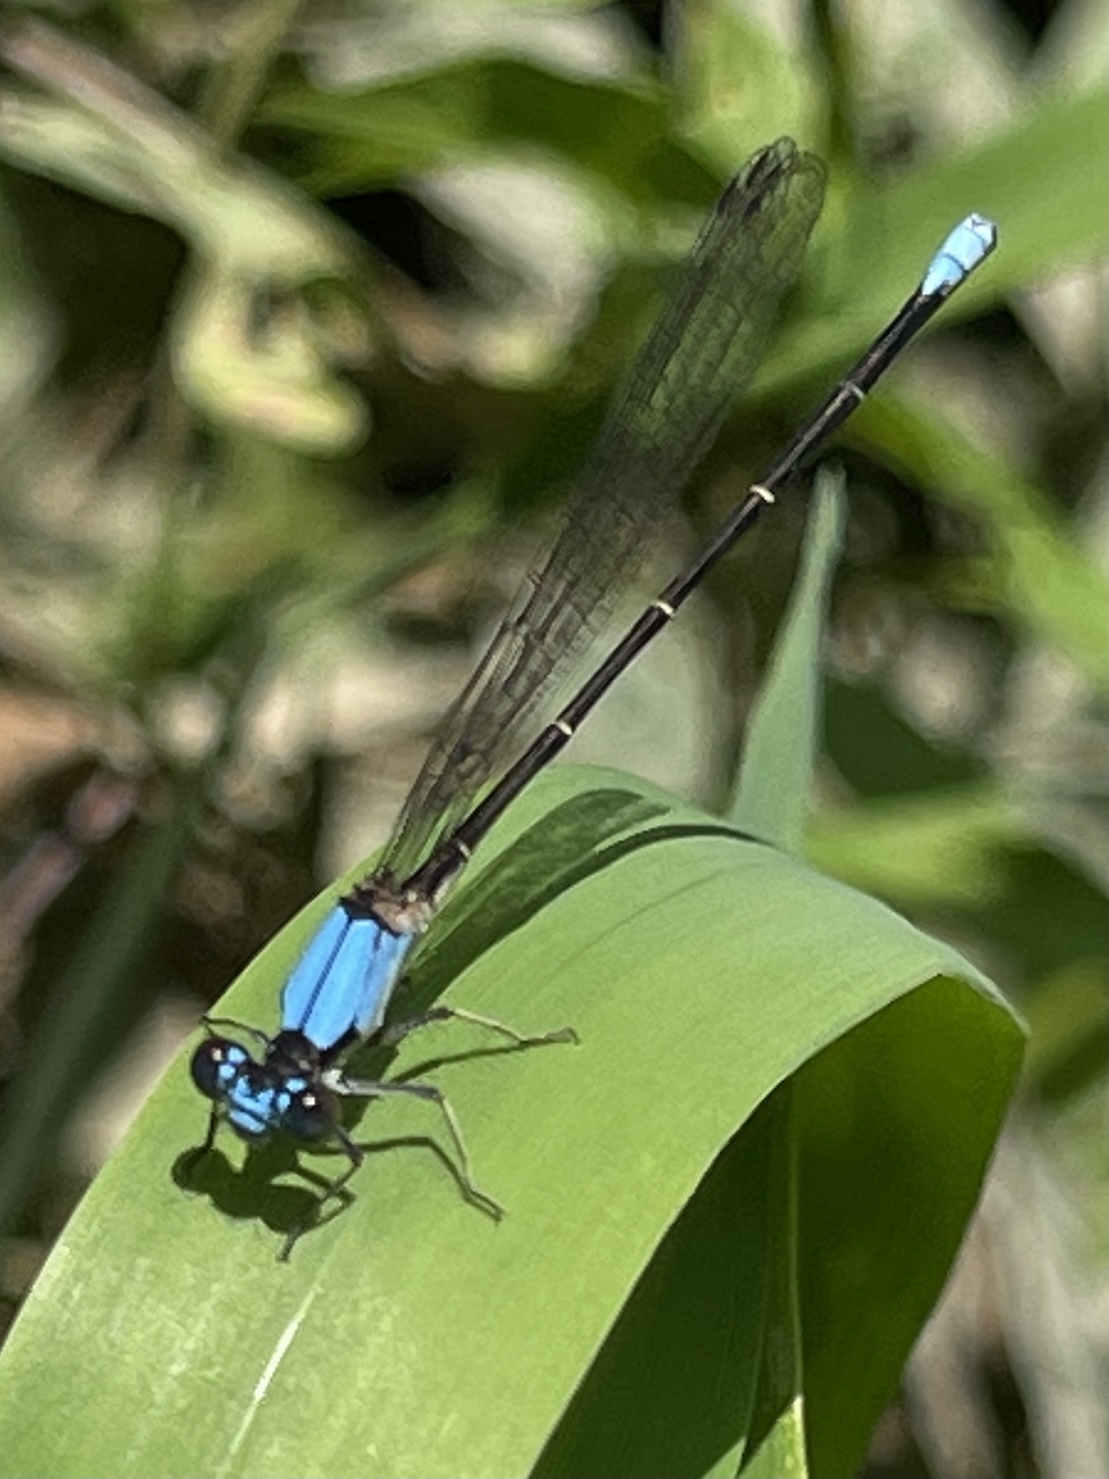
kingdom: Animalia
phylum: Arthropoda
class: Insecta
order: Odonata
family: Coenagrionidae
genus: Argia
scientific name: Argia apicalis
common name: Blue-fronted dancer
